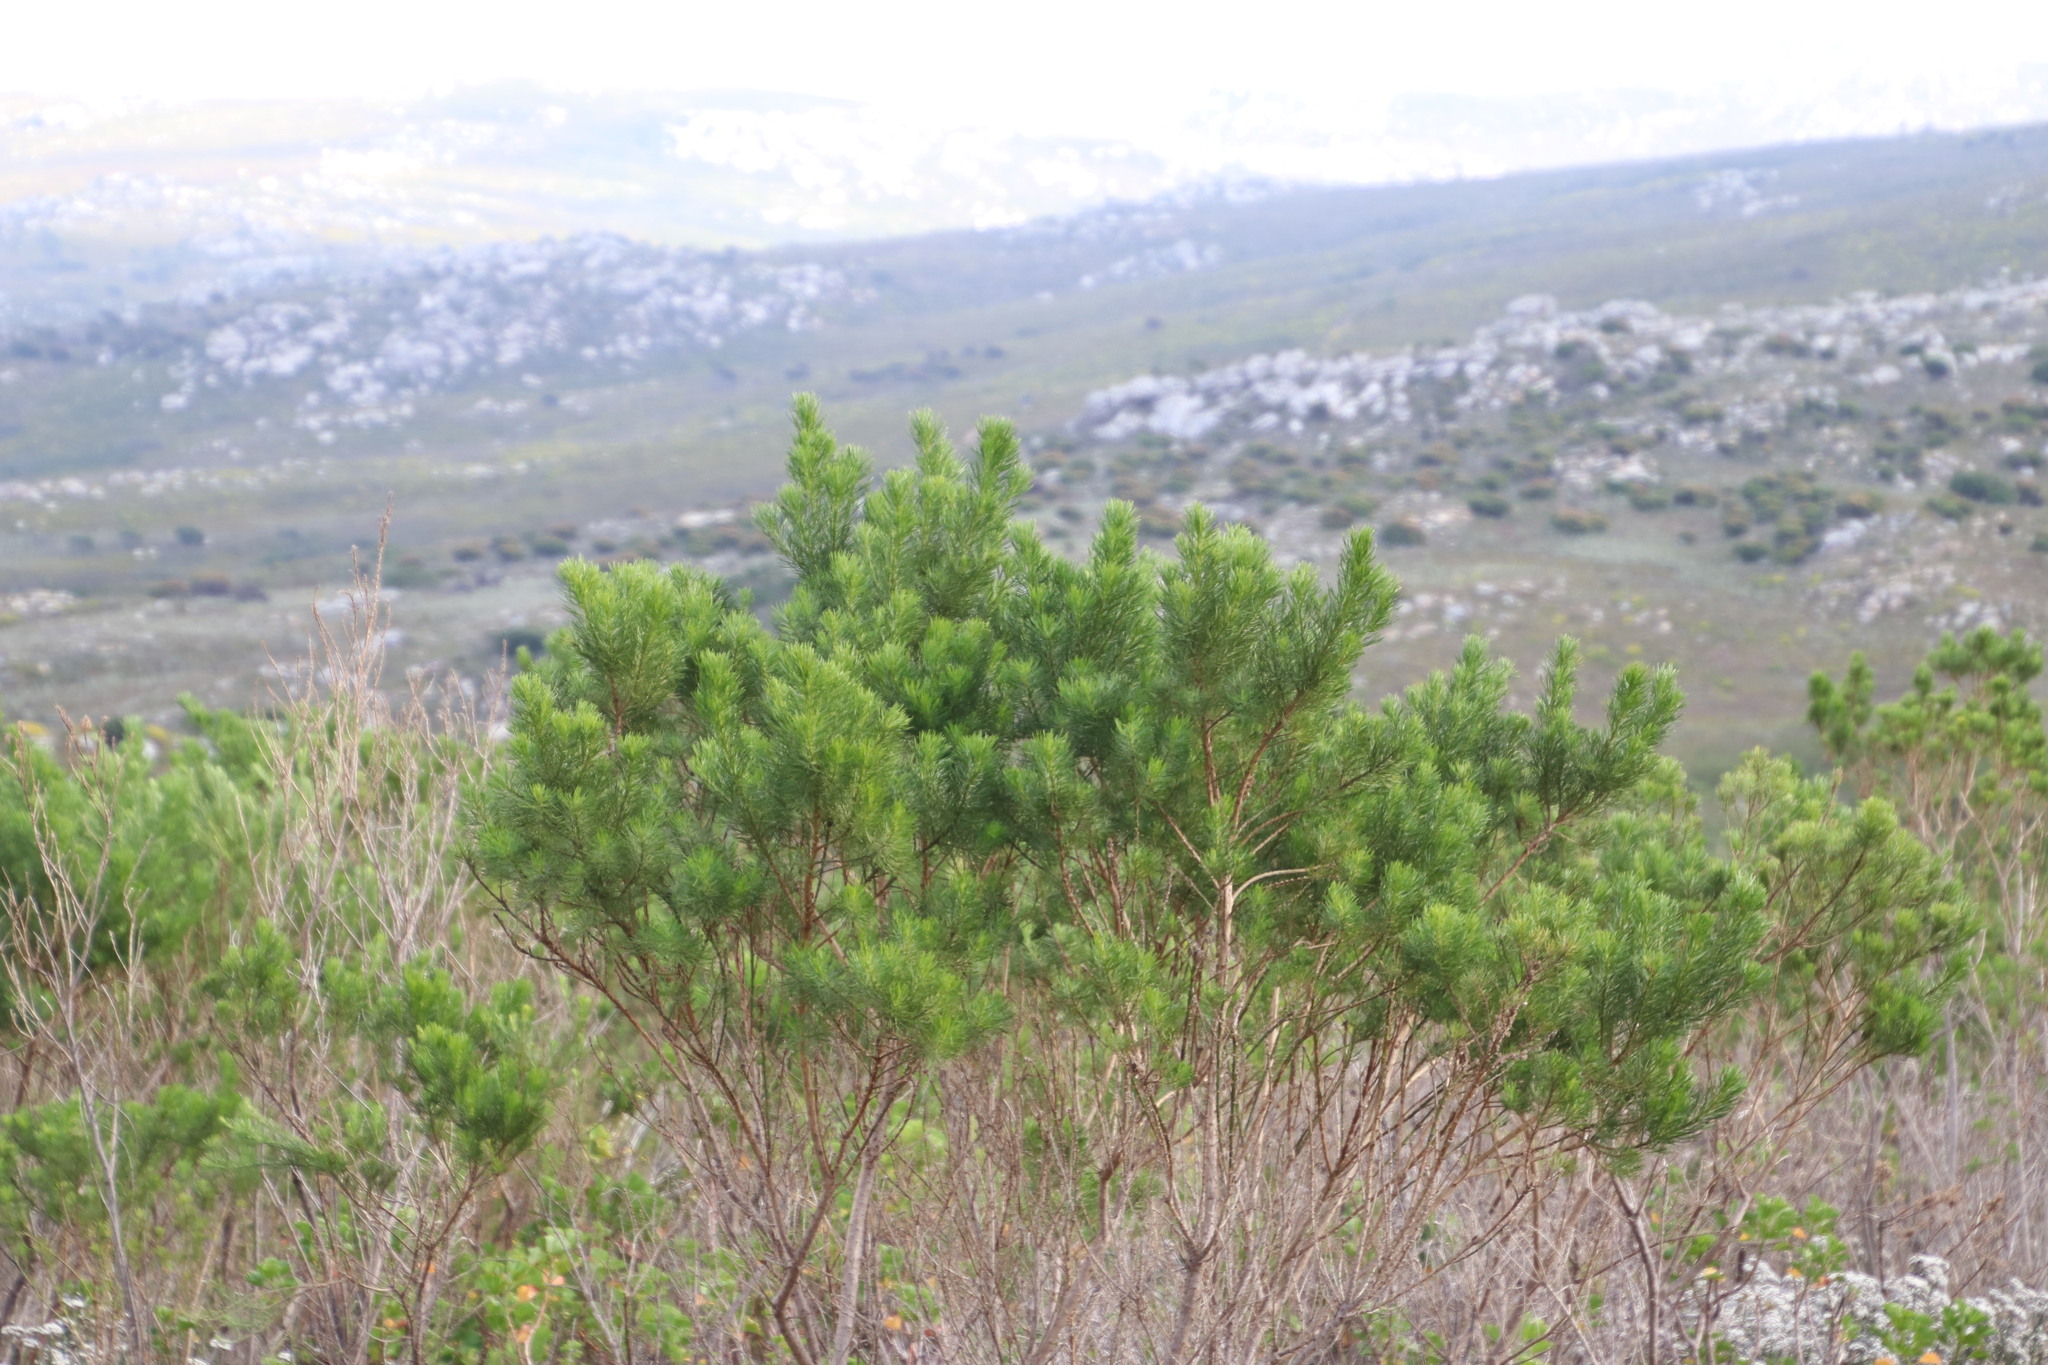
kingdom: Plantae
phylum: Tracheophyta
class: Magnoliopsida
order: Fabales
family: Fabaceae
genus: Psoralea
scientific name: Psoralea pinnata
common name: African scurfpea
